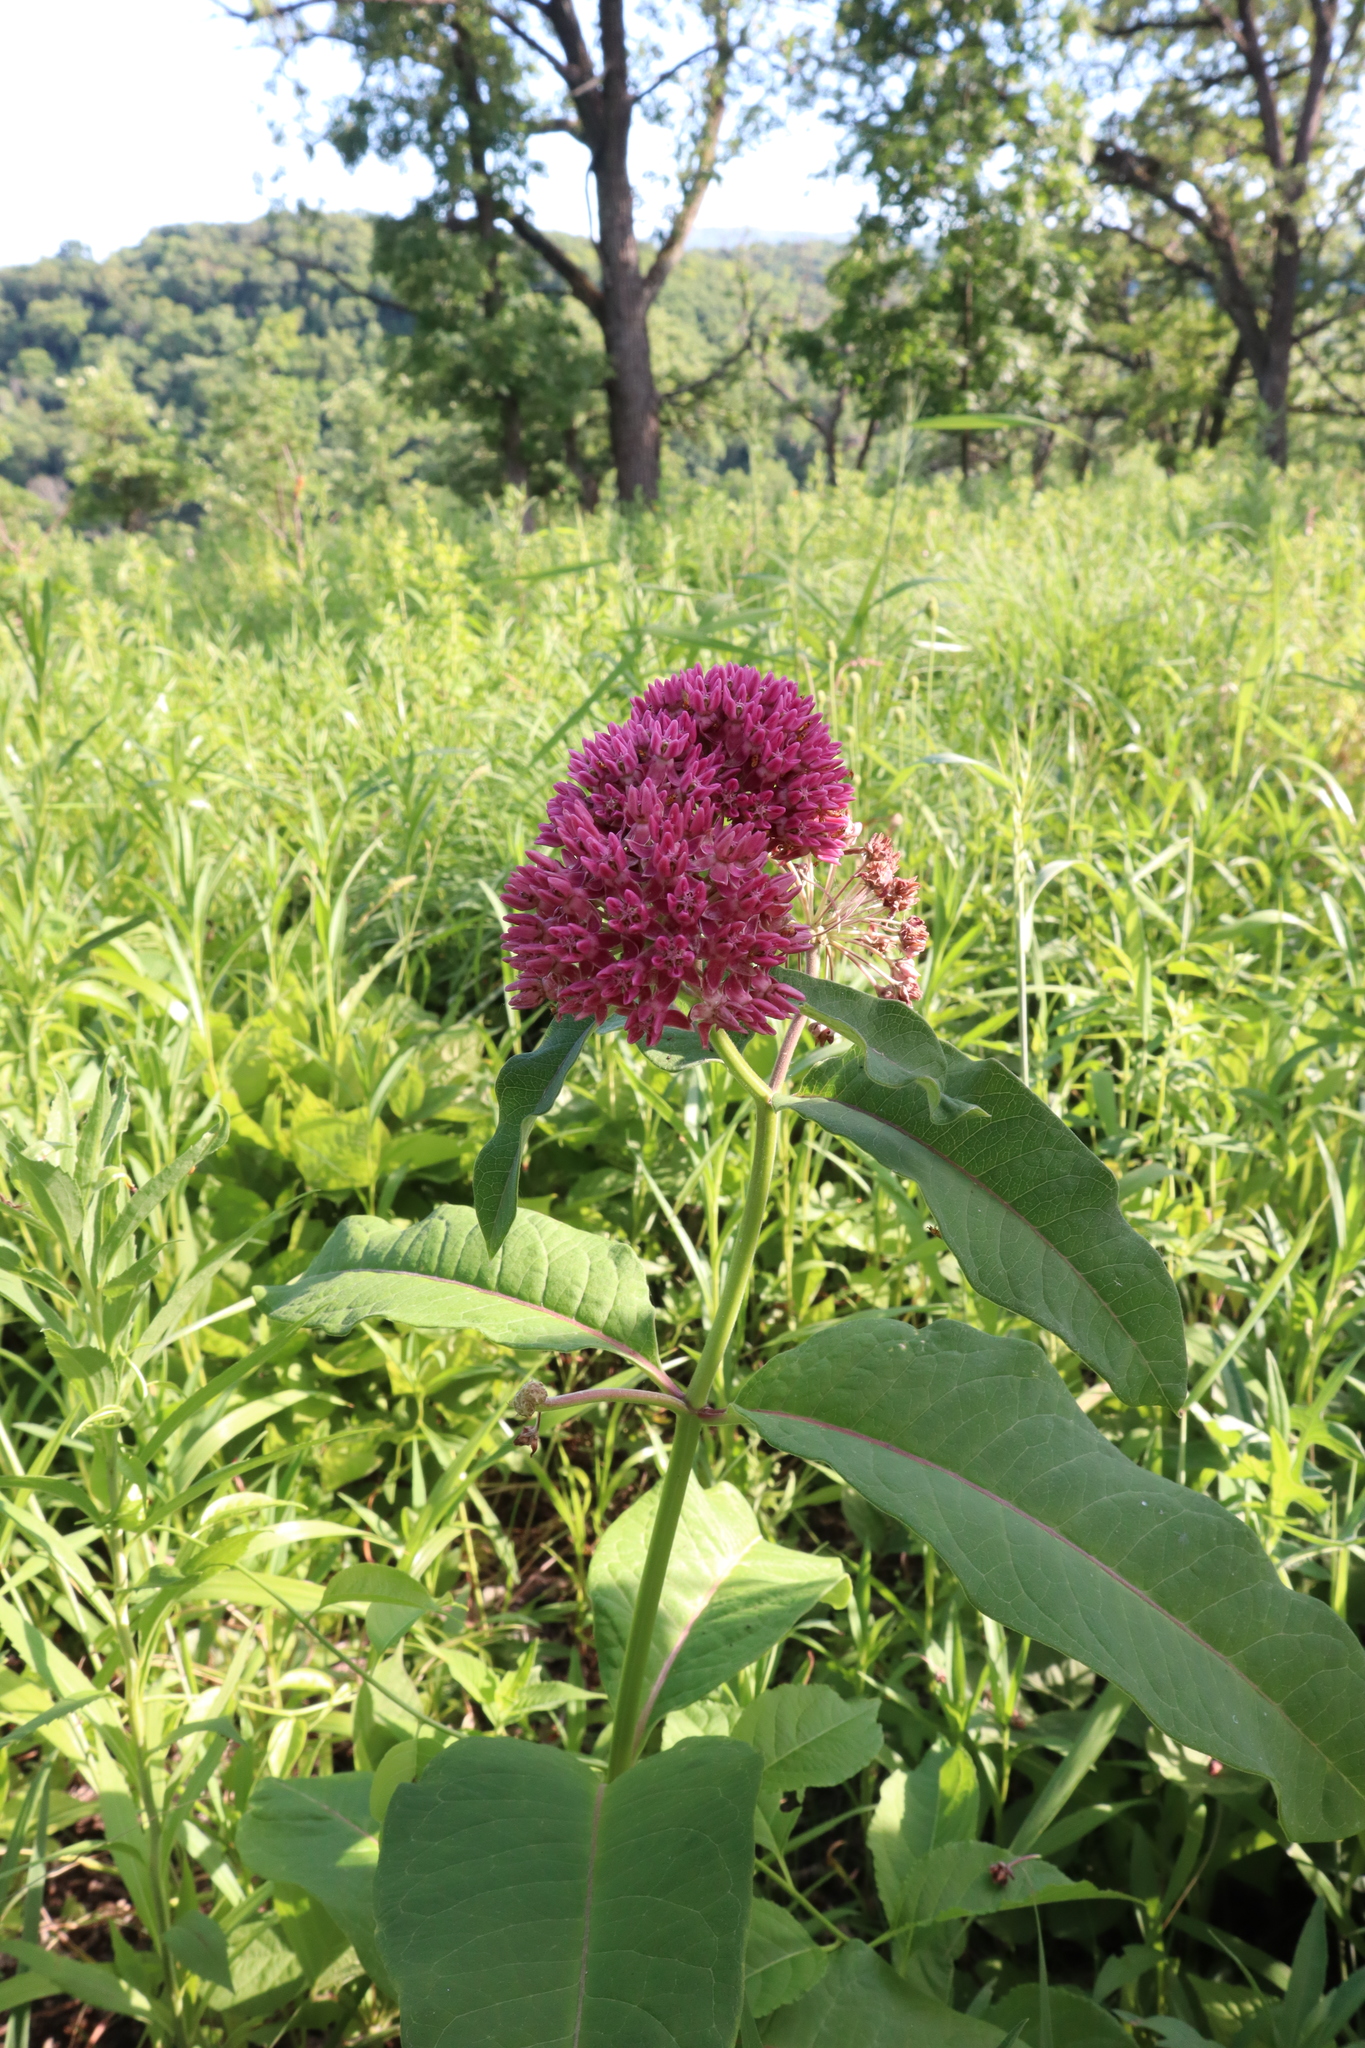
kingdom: Plantae
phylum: Tracheophyta
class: Magnoliopsida
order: Gentianales
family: Apocynaceae
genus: Asclepias
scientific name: Asclepias purpurascens
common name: Purple milkweed
